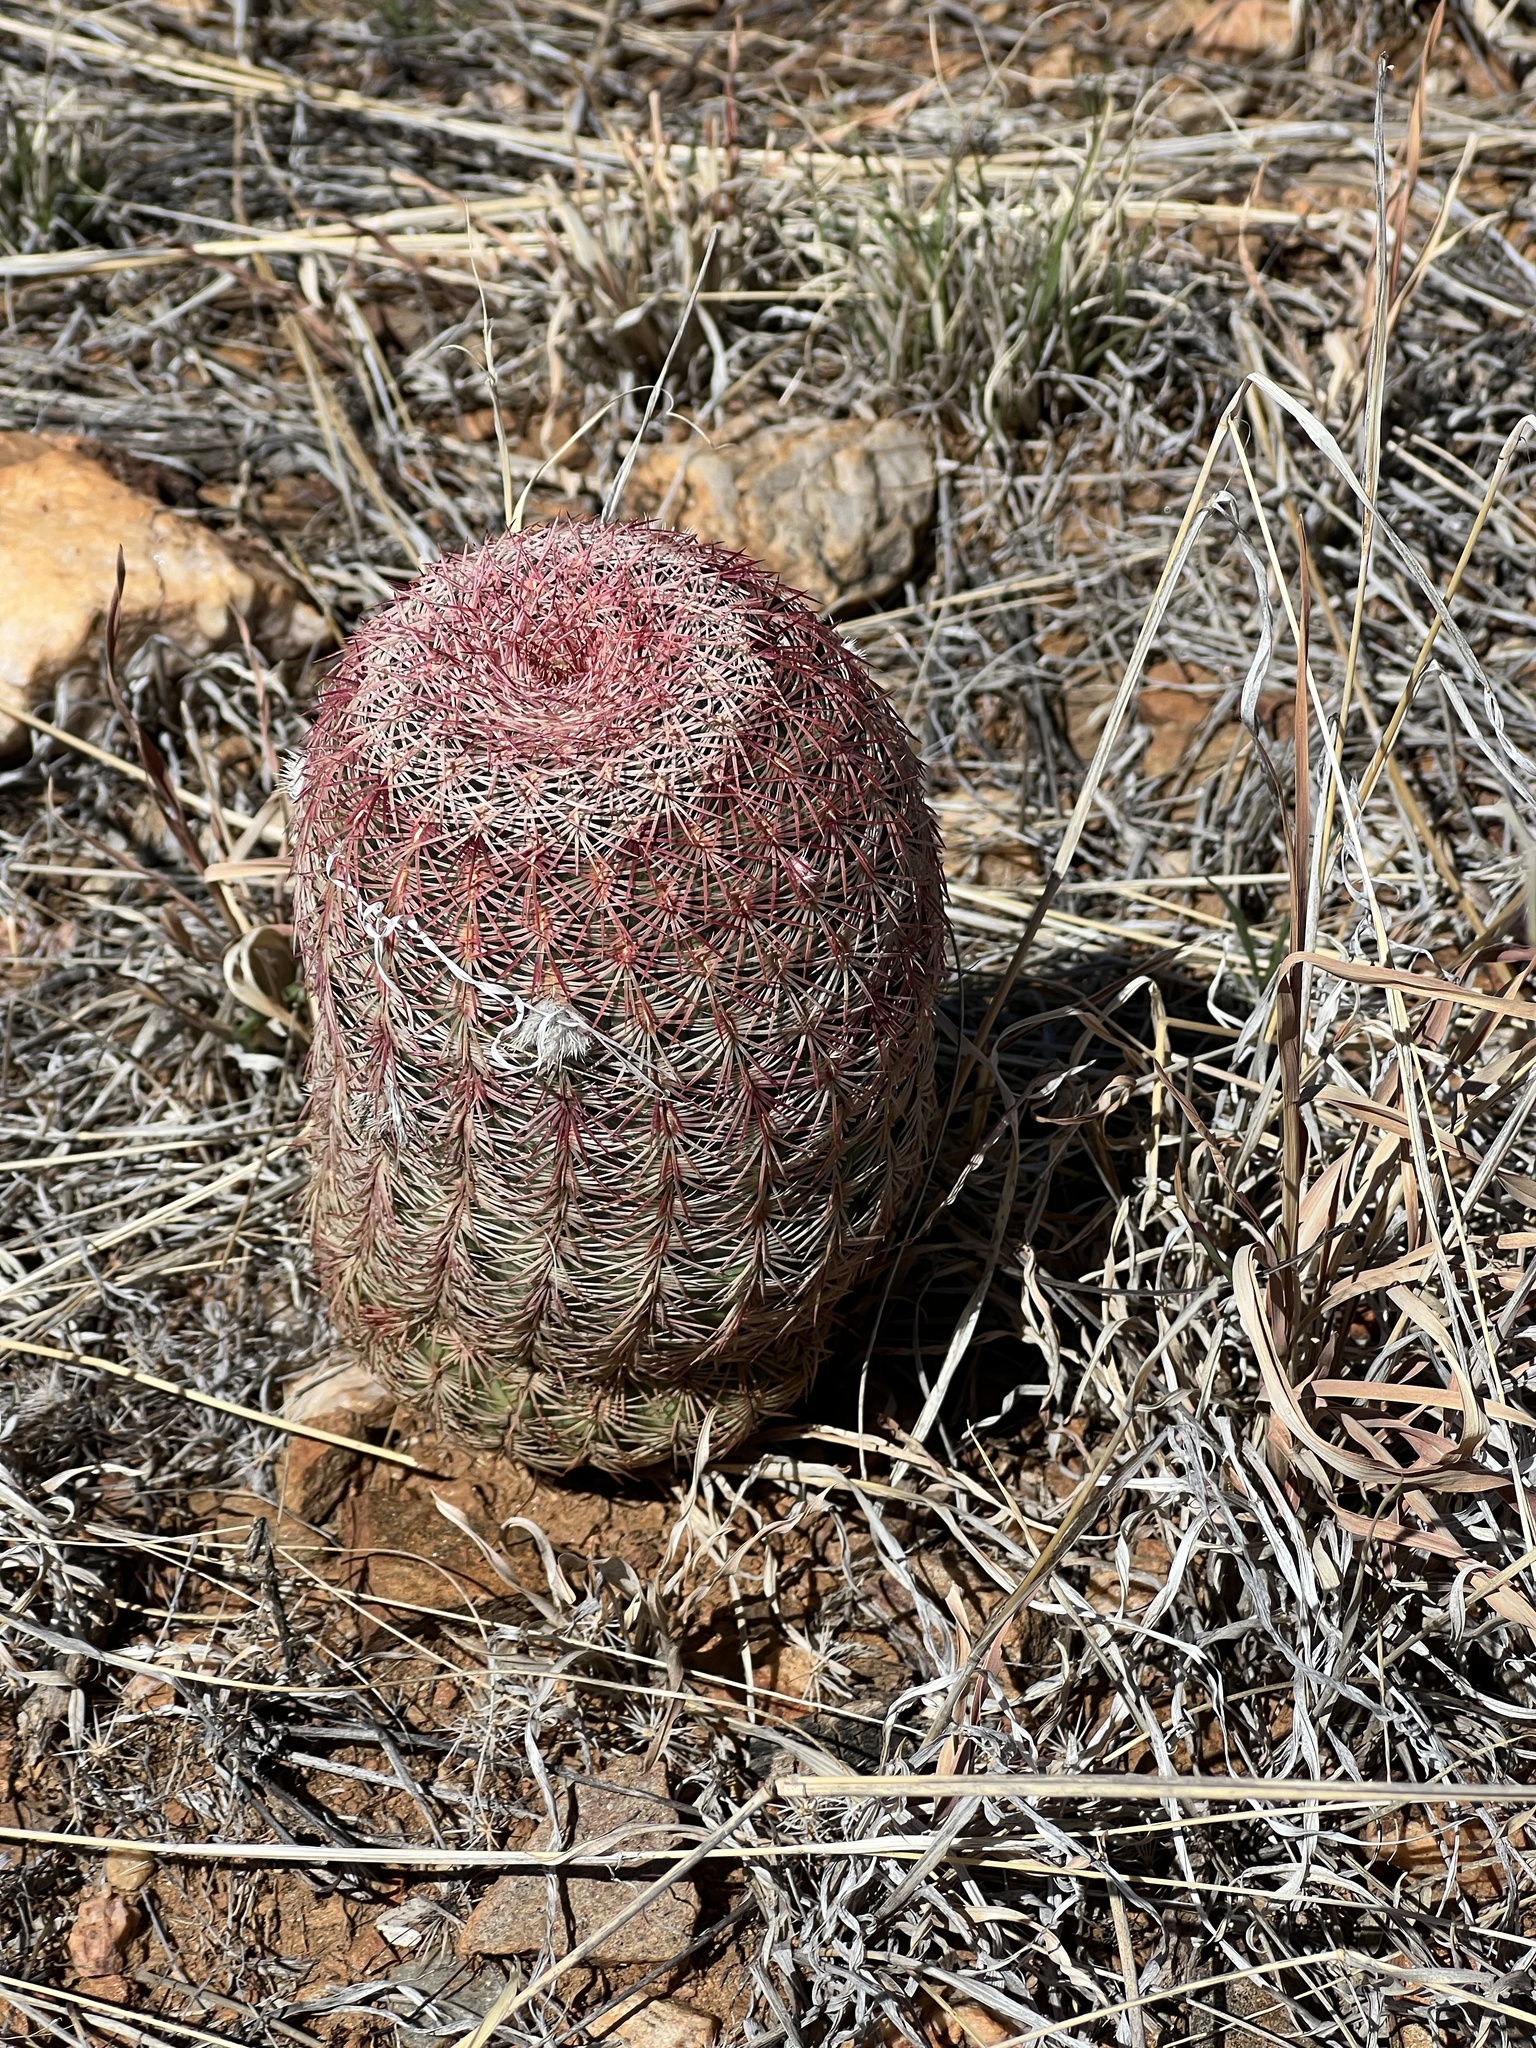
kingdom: Plantae
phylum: Tracheophyta
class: Magnoliopsida
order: Caryophyllales
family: Cactaceae
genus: Echinocereus
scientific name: Echinocereus rigidissimus
